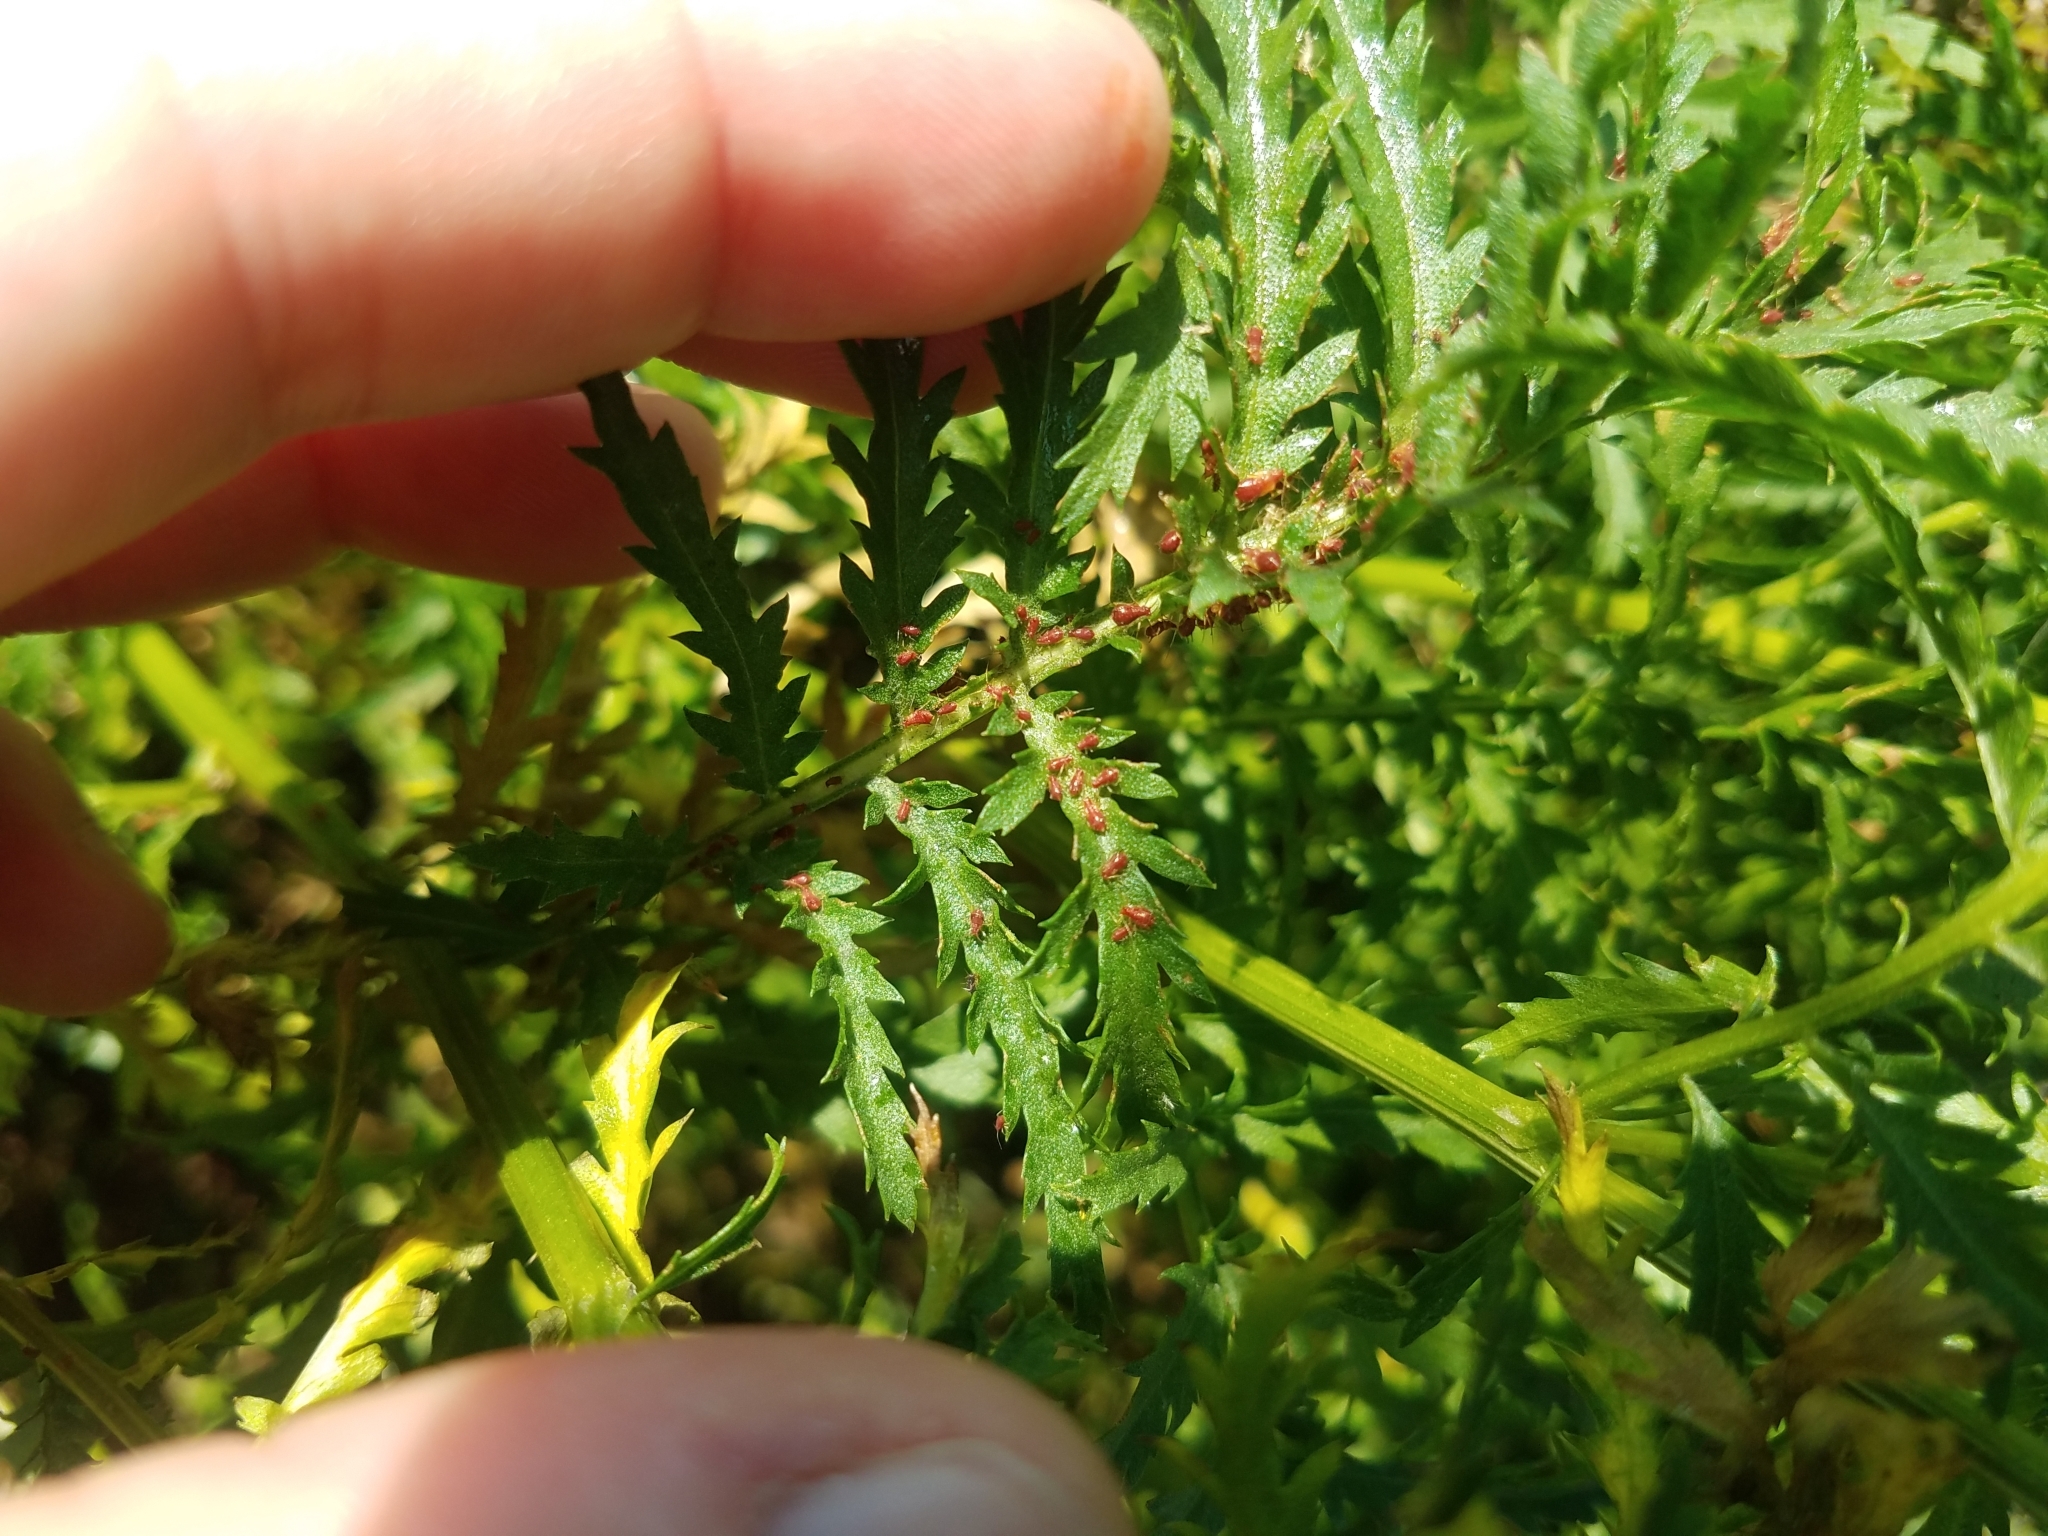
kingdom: Animalia
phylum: Arthropoda
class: Insecta
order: Hemiptera
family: Aphididae
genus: Uroleucon
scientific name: Uroleucon tanaceti
